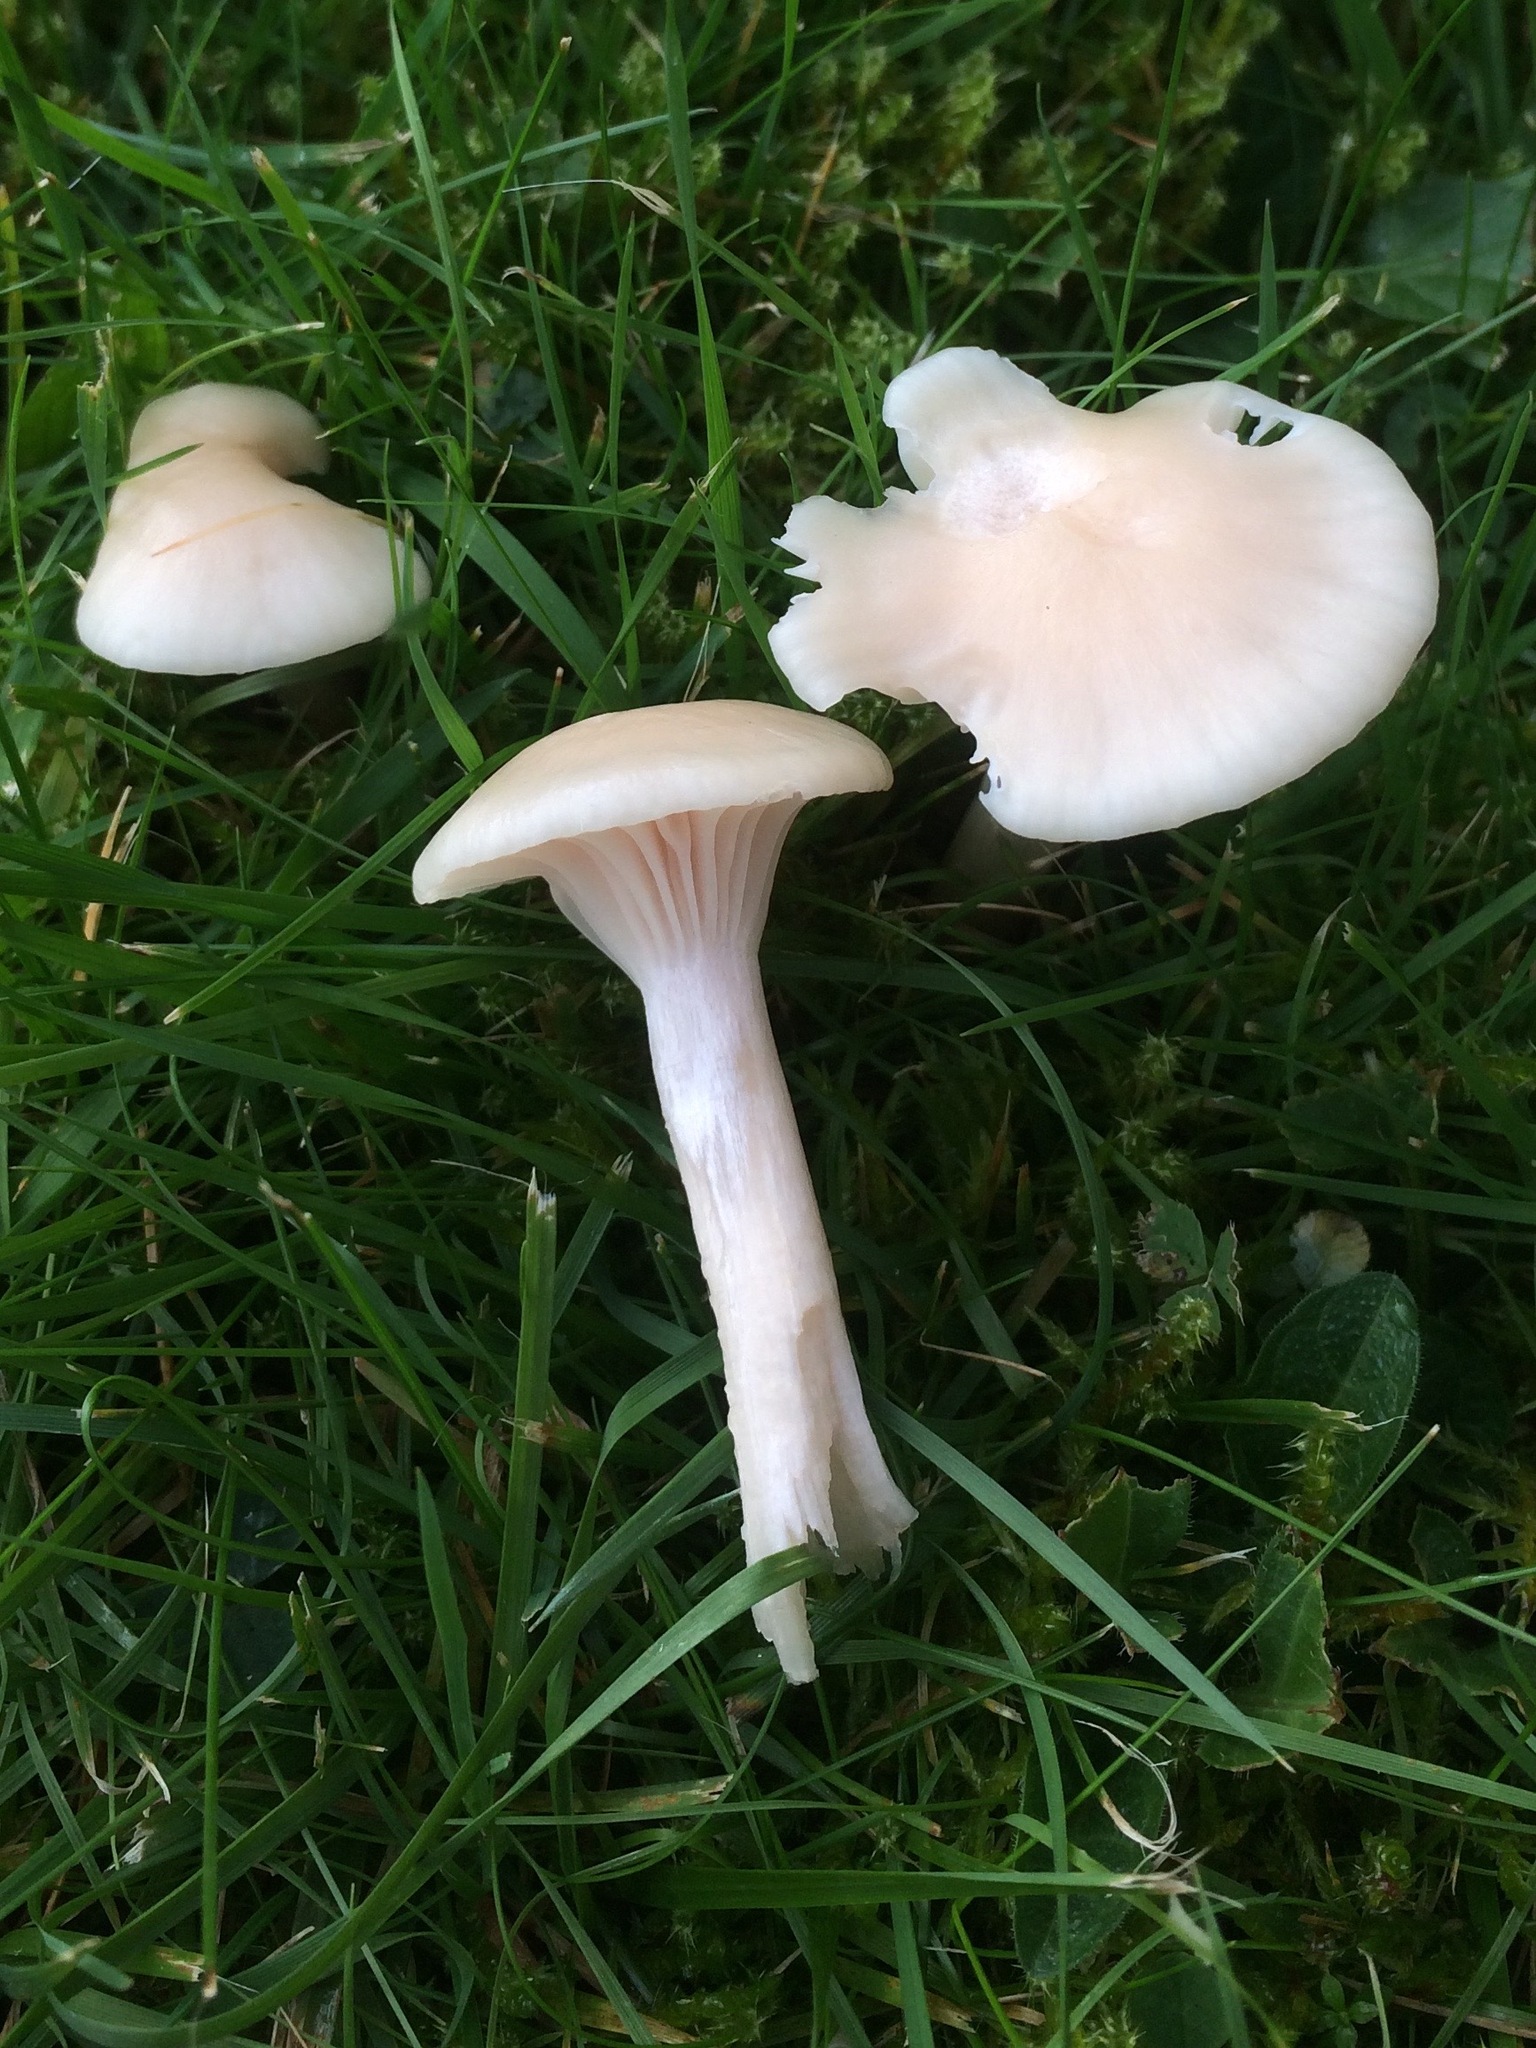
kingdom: Fungi
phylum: Basidiomycota
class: Agaricomycetes
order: Agaricales
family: Hygrophoraceae
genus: Cuphophyllus
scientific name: Cuphophyllus virgineus
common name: Snowy waxcap
